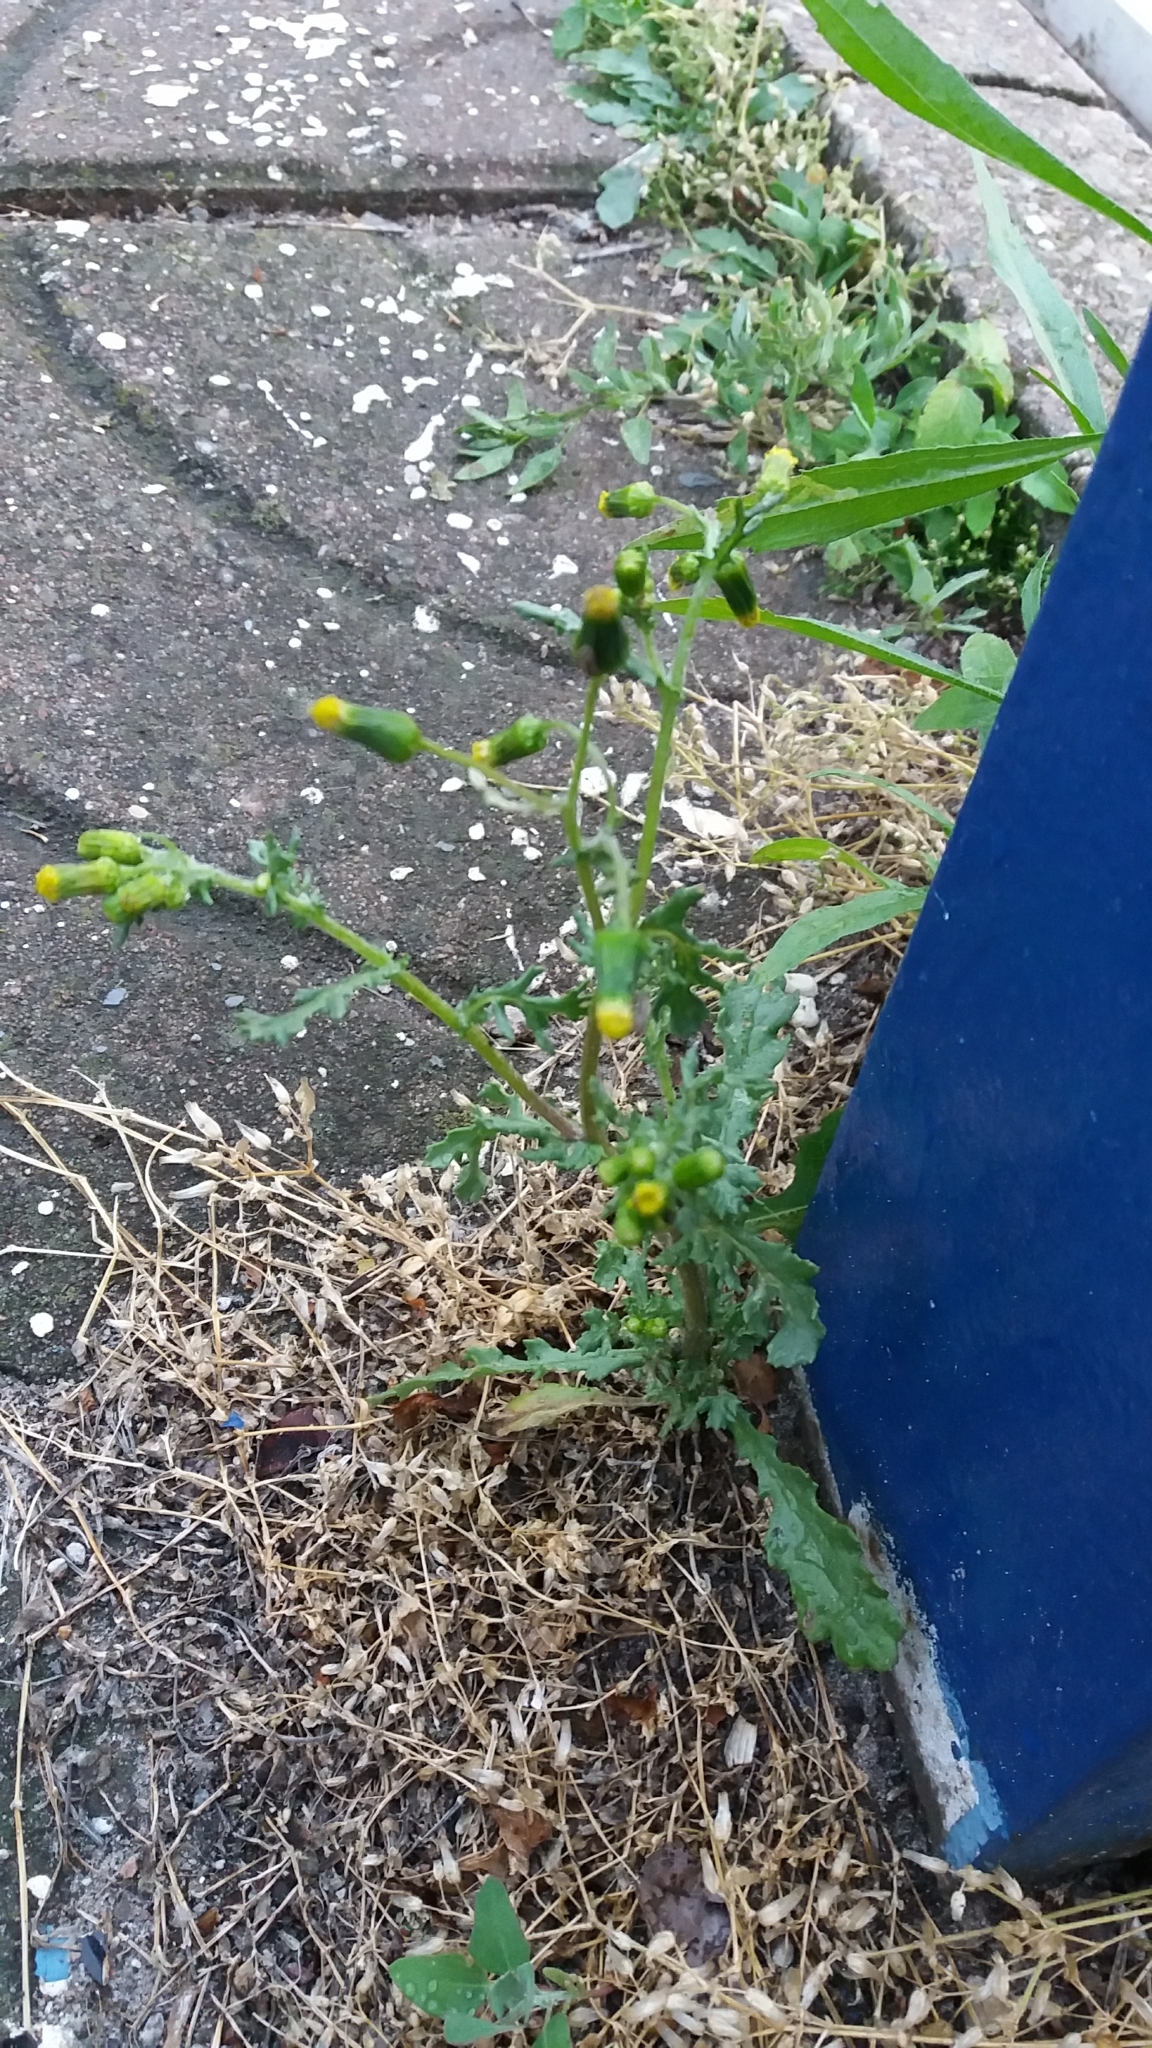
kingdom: Plantae
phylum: Tracheophyta
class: Magnoliopsida
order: Asterales
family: Asteraceae
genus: Senecio
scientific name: Senecio vulgaris
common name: Old-man-in-the-spring
